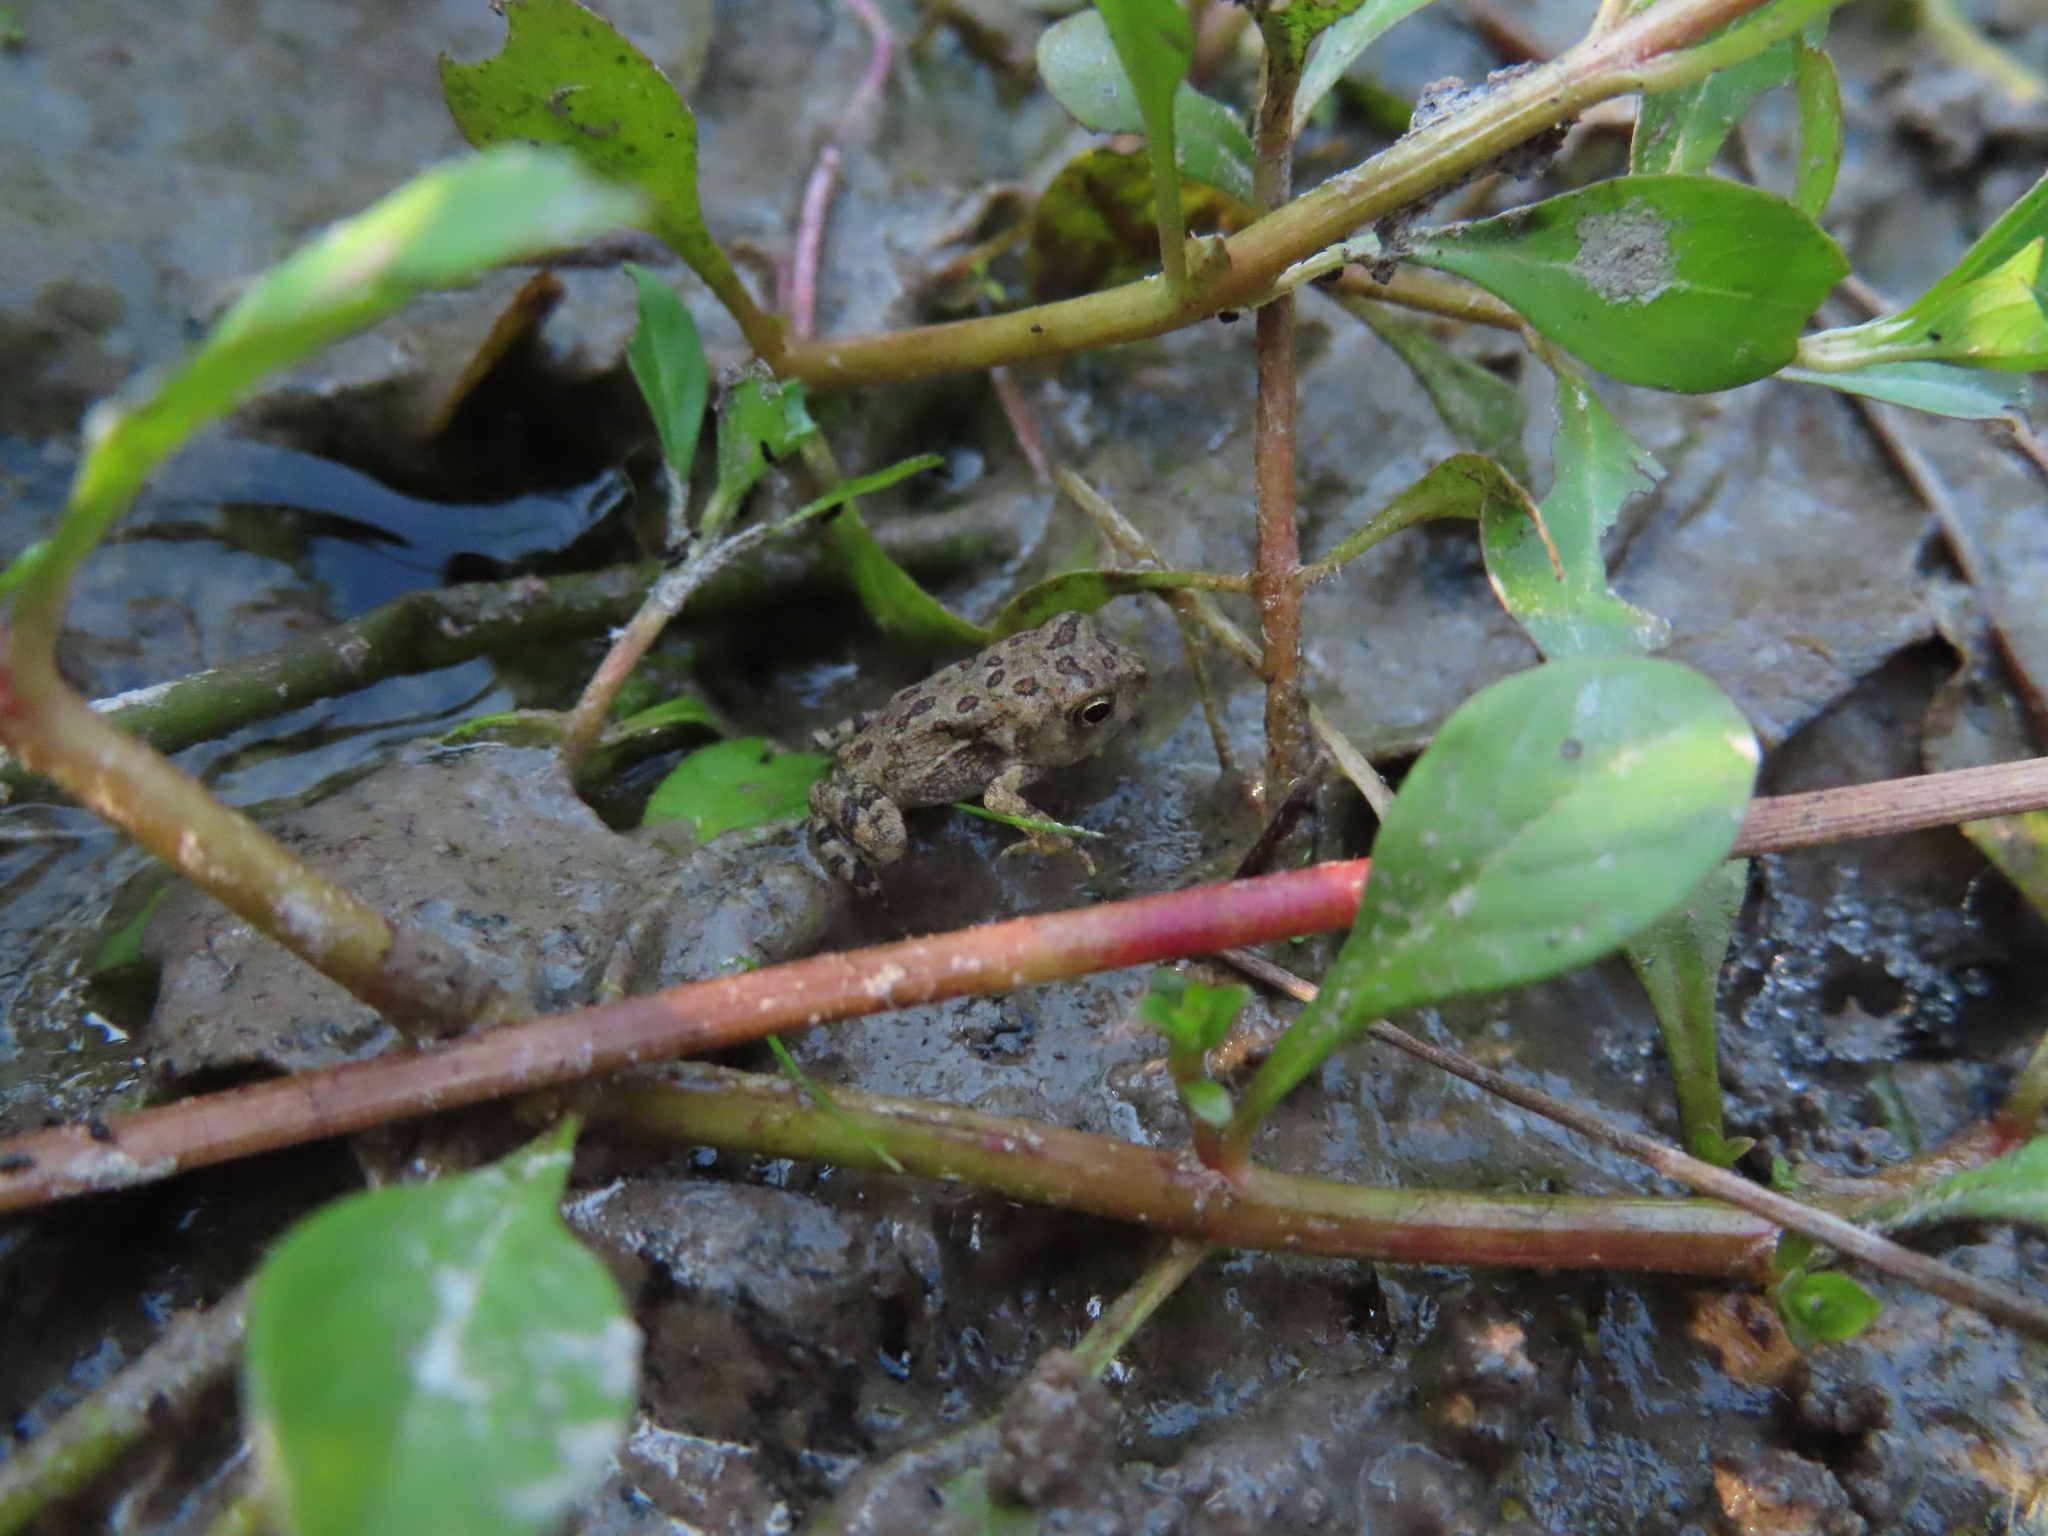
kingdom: Plantae
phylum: Tracheophyta
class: Magnoliopsida
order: Myrtales
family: Onagraceae
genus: Ludwigia
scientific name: Ludwigia palustris
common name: Hampshire-purslane
